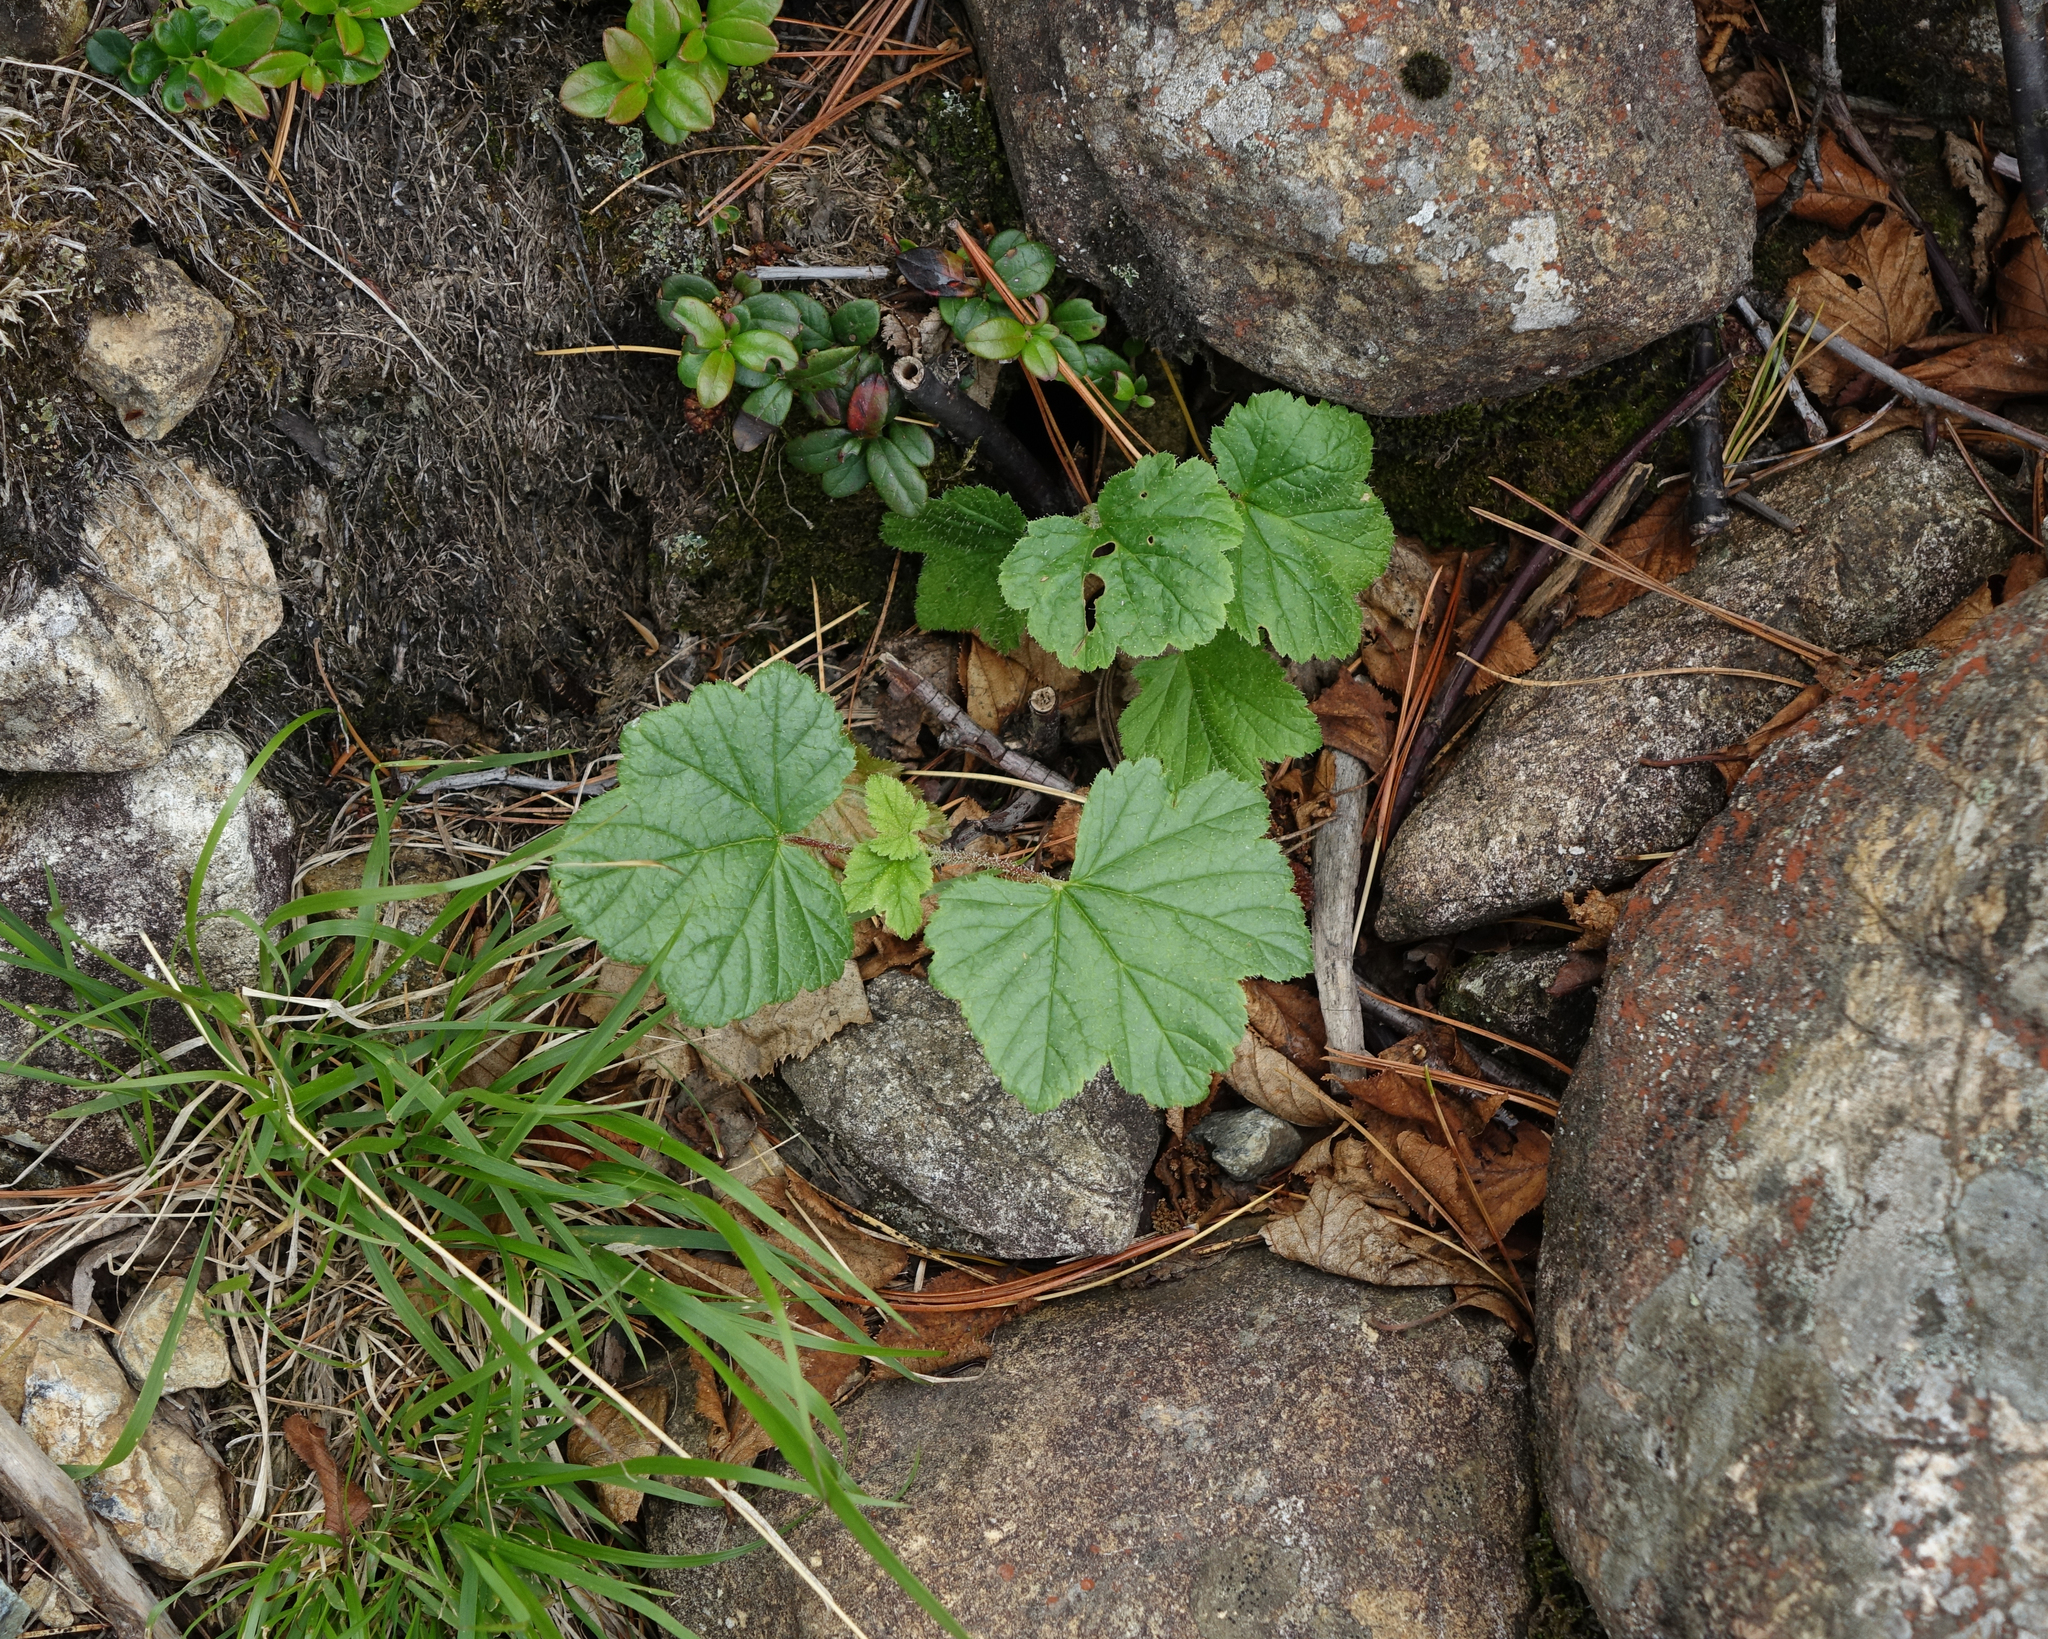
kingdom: Plantae
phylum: Tracheophyta
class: Magnoliopsida
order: Saxifragales
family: Grossulariaceae
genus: Ribes
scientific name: Ribes procumbens
